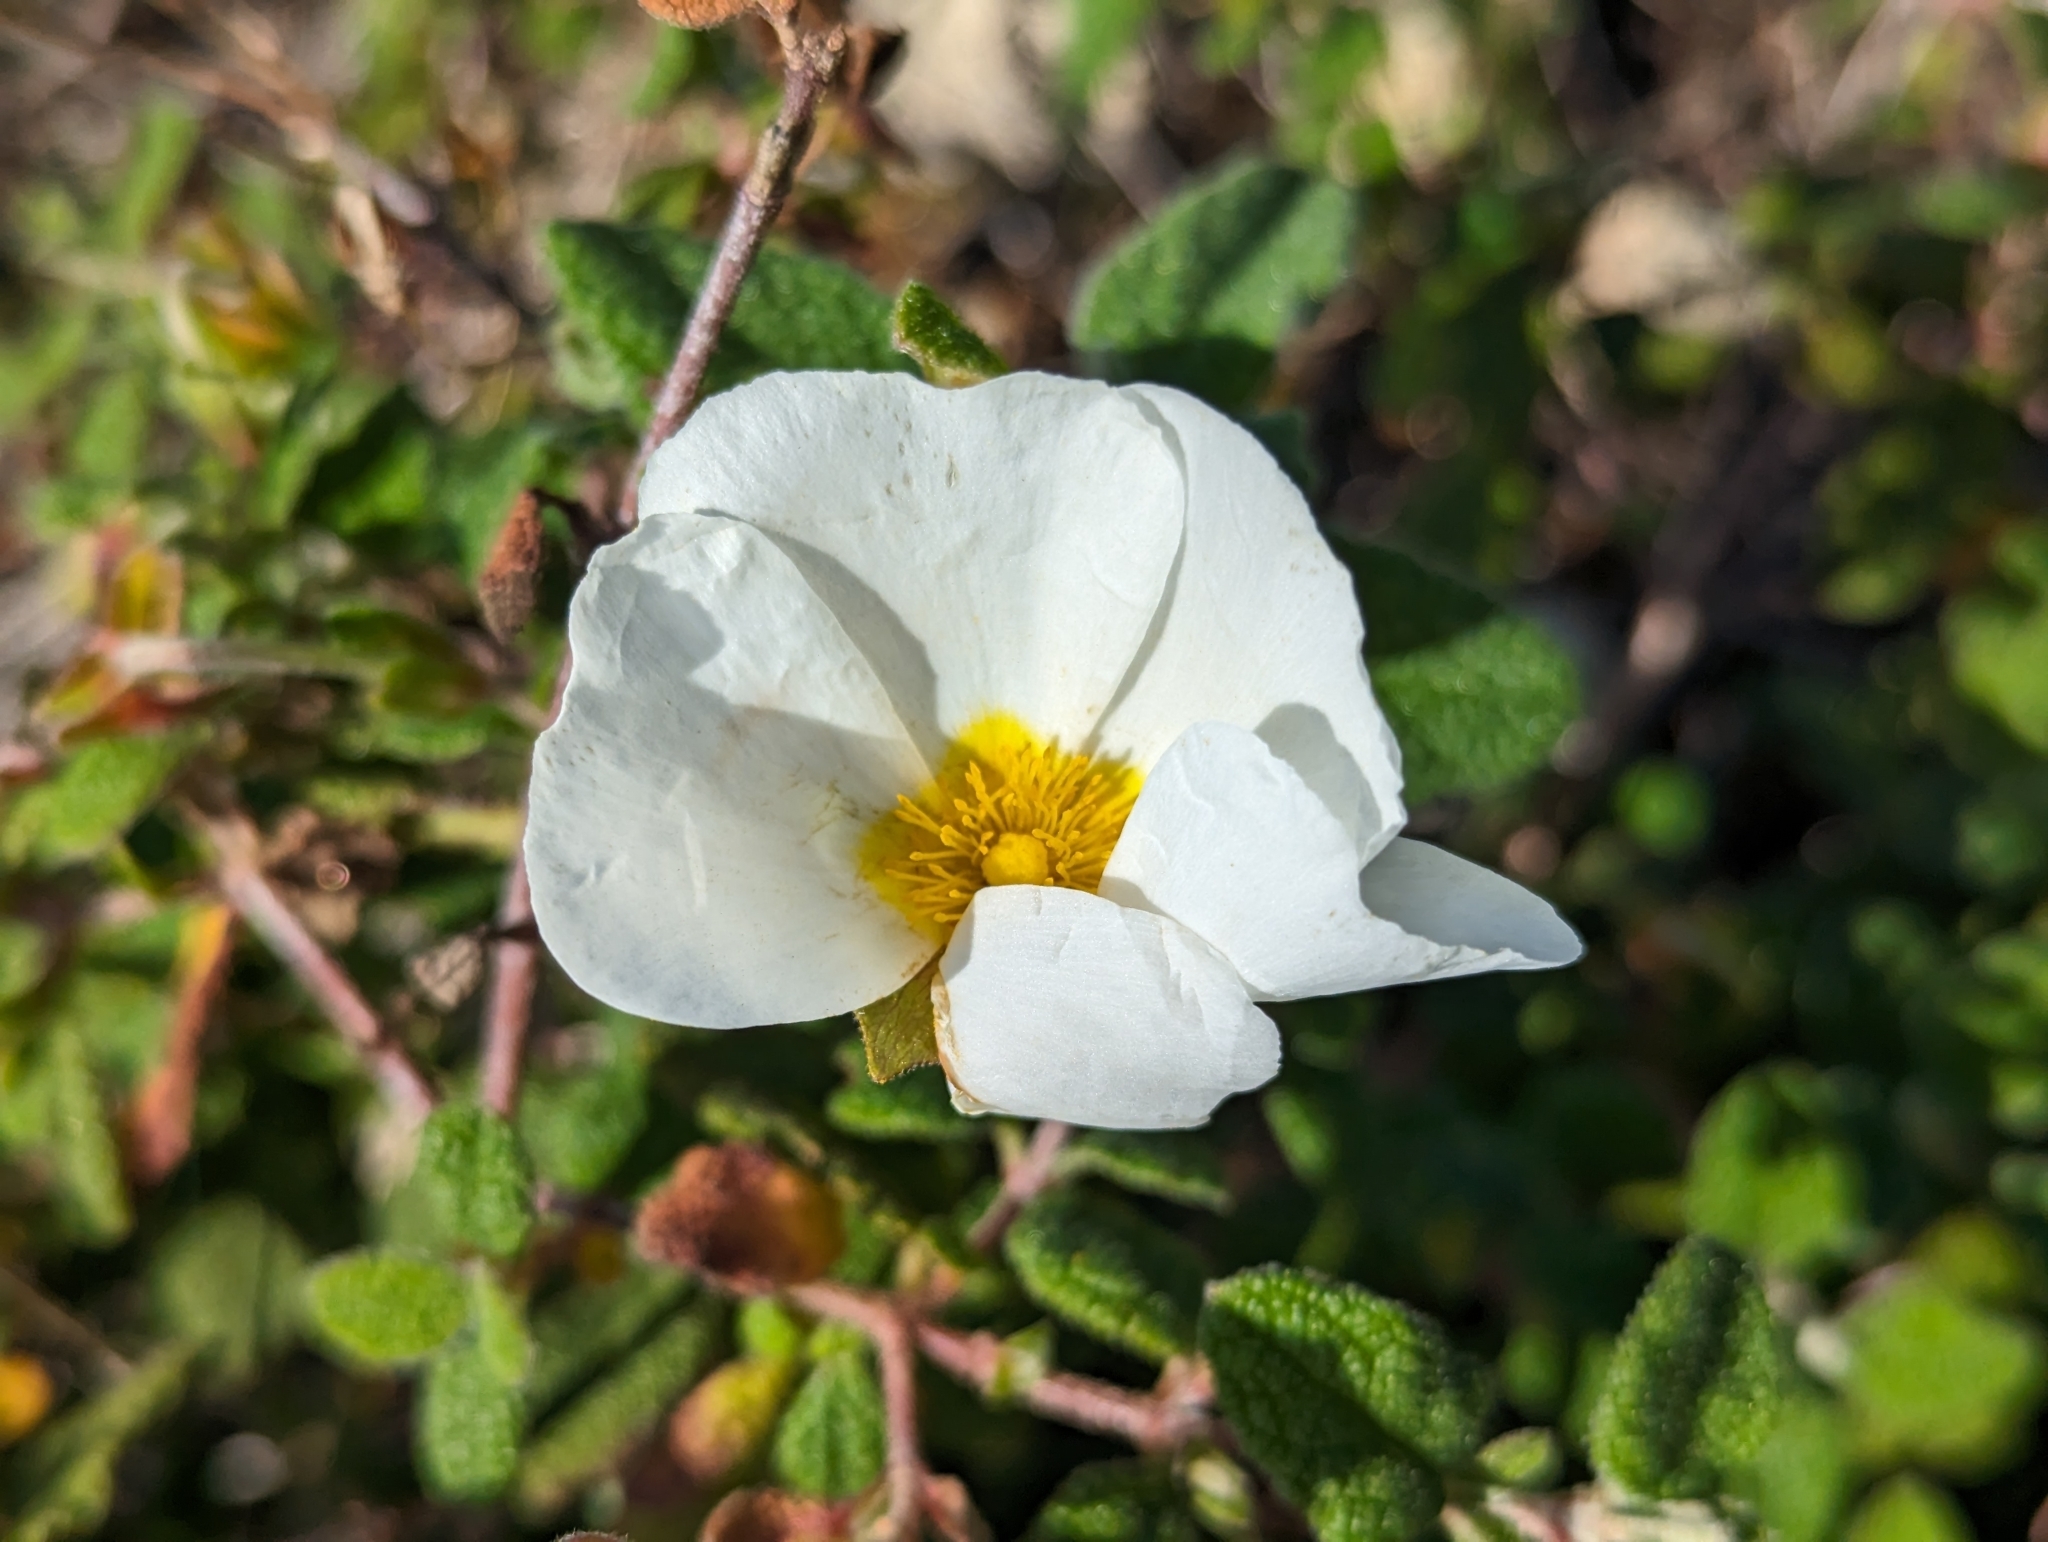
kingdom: Plantae
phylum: Tracheophyta
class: Magnoliopsida
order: Malvales
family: Cistaceae
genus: Cistus
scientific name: Cistus salviifolius
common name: Salvia cistus
